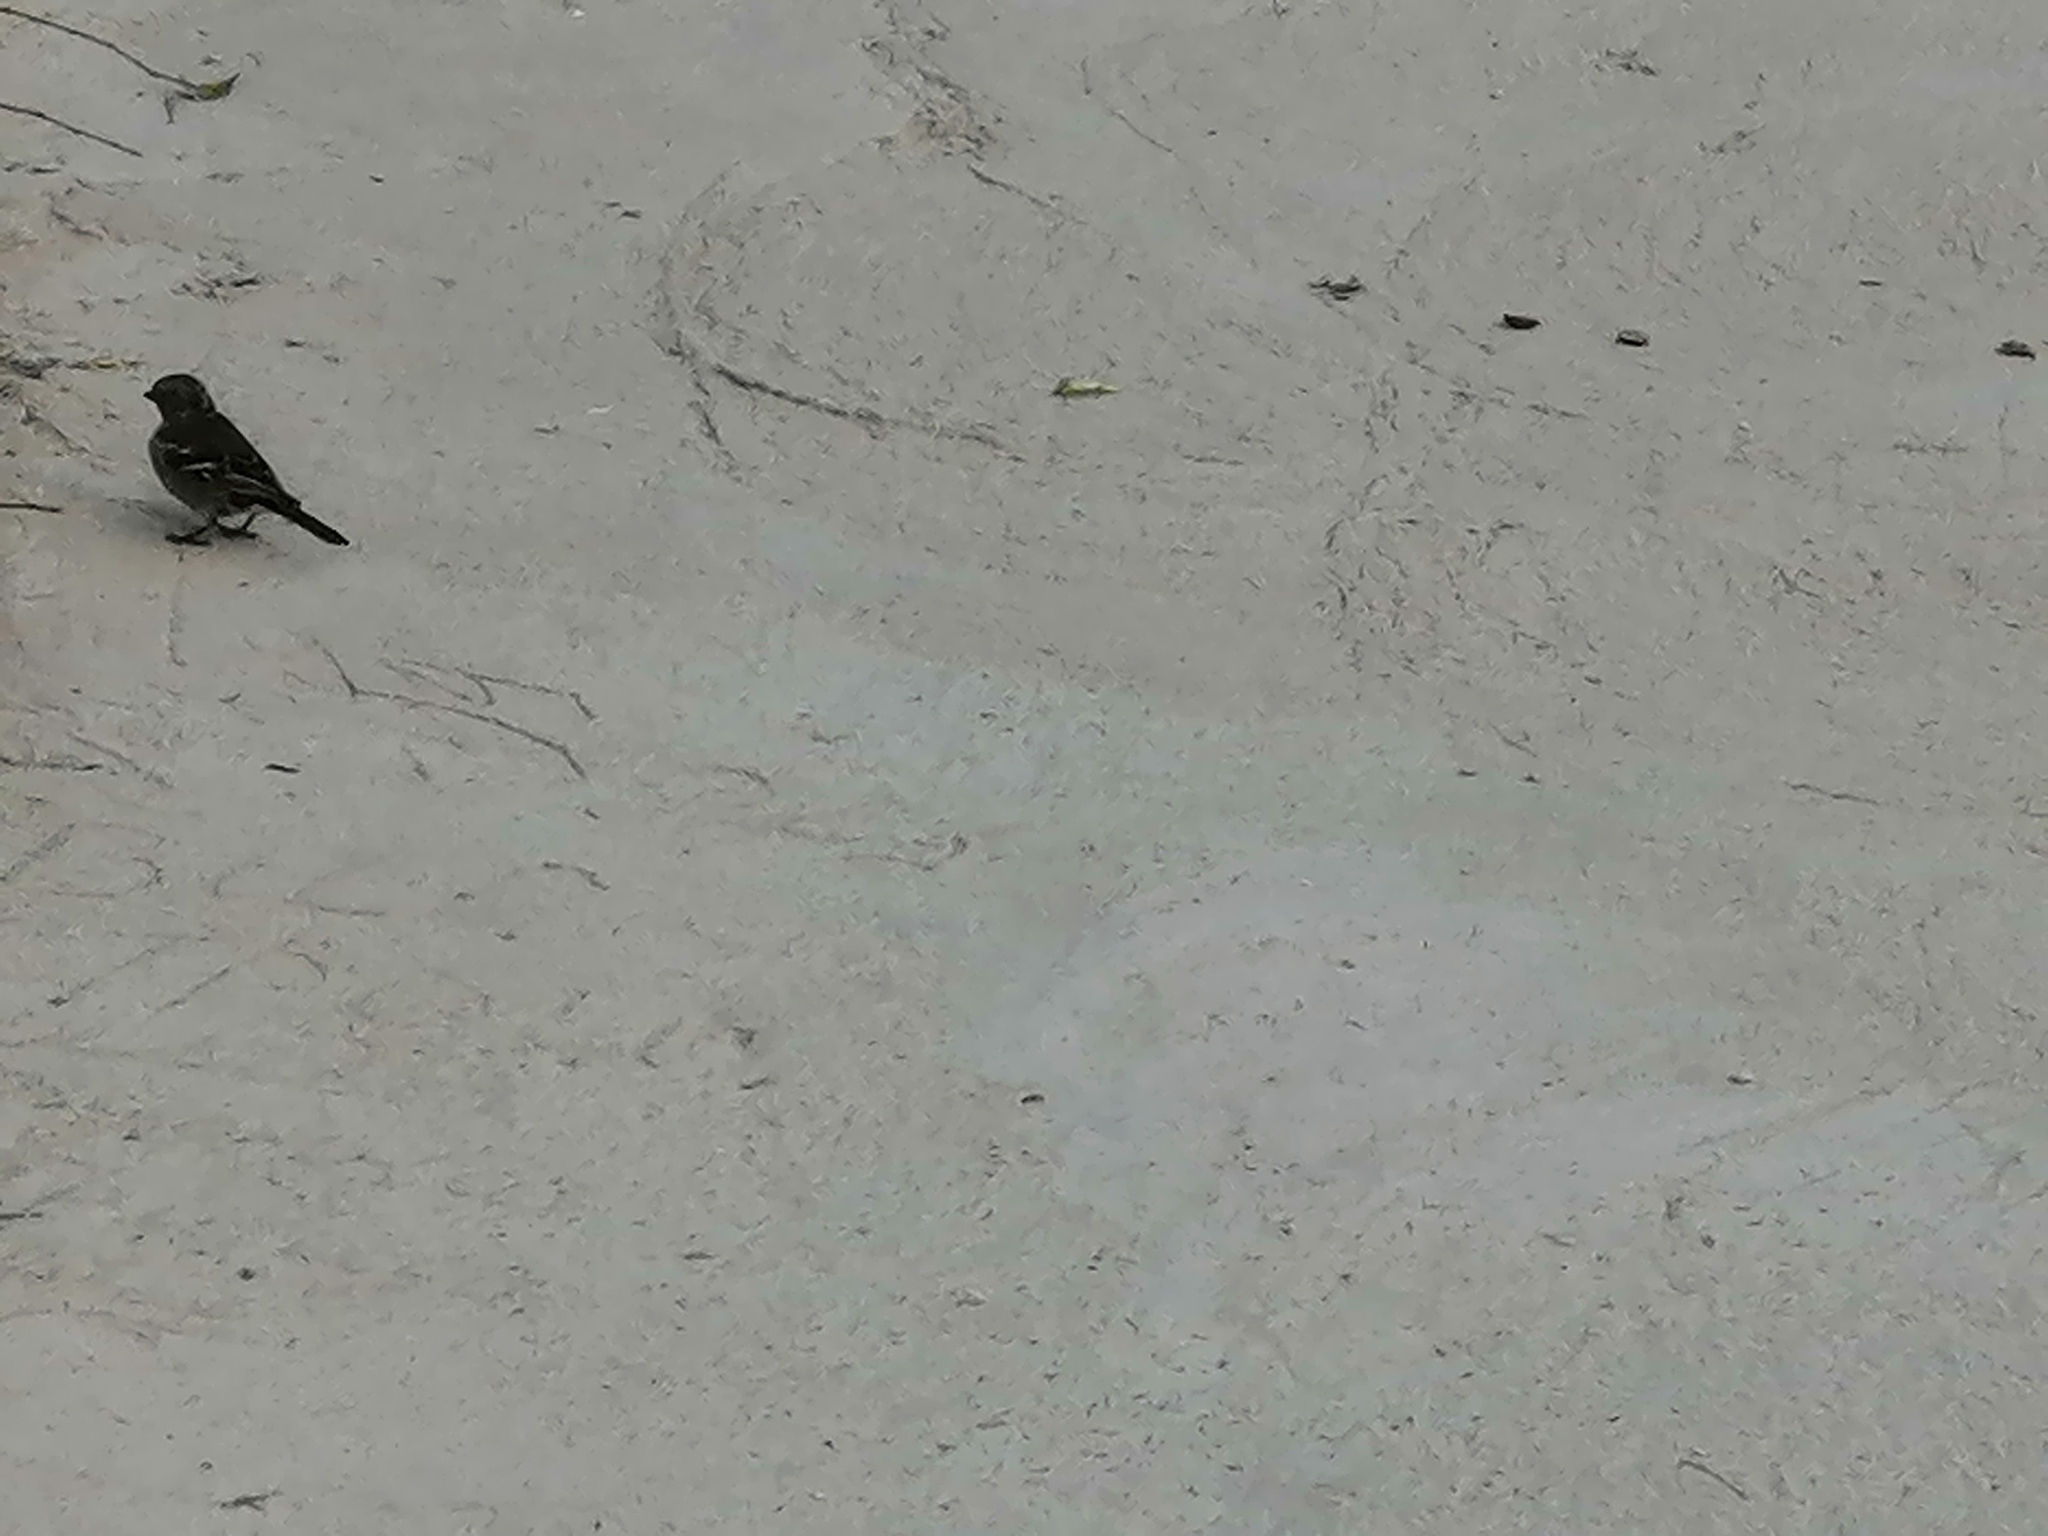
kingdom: Animalia
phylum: Chordata
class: Aves
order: Passeriformes
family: Fringillidae
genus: Fringilla
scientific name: Fringilla coelebs
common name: Common chaffinch
